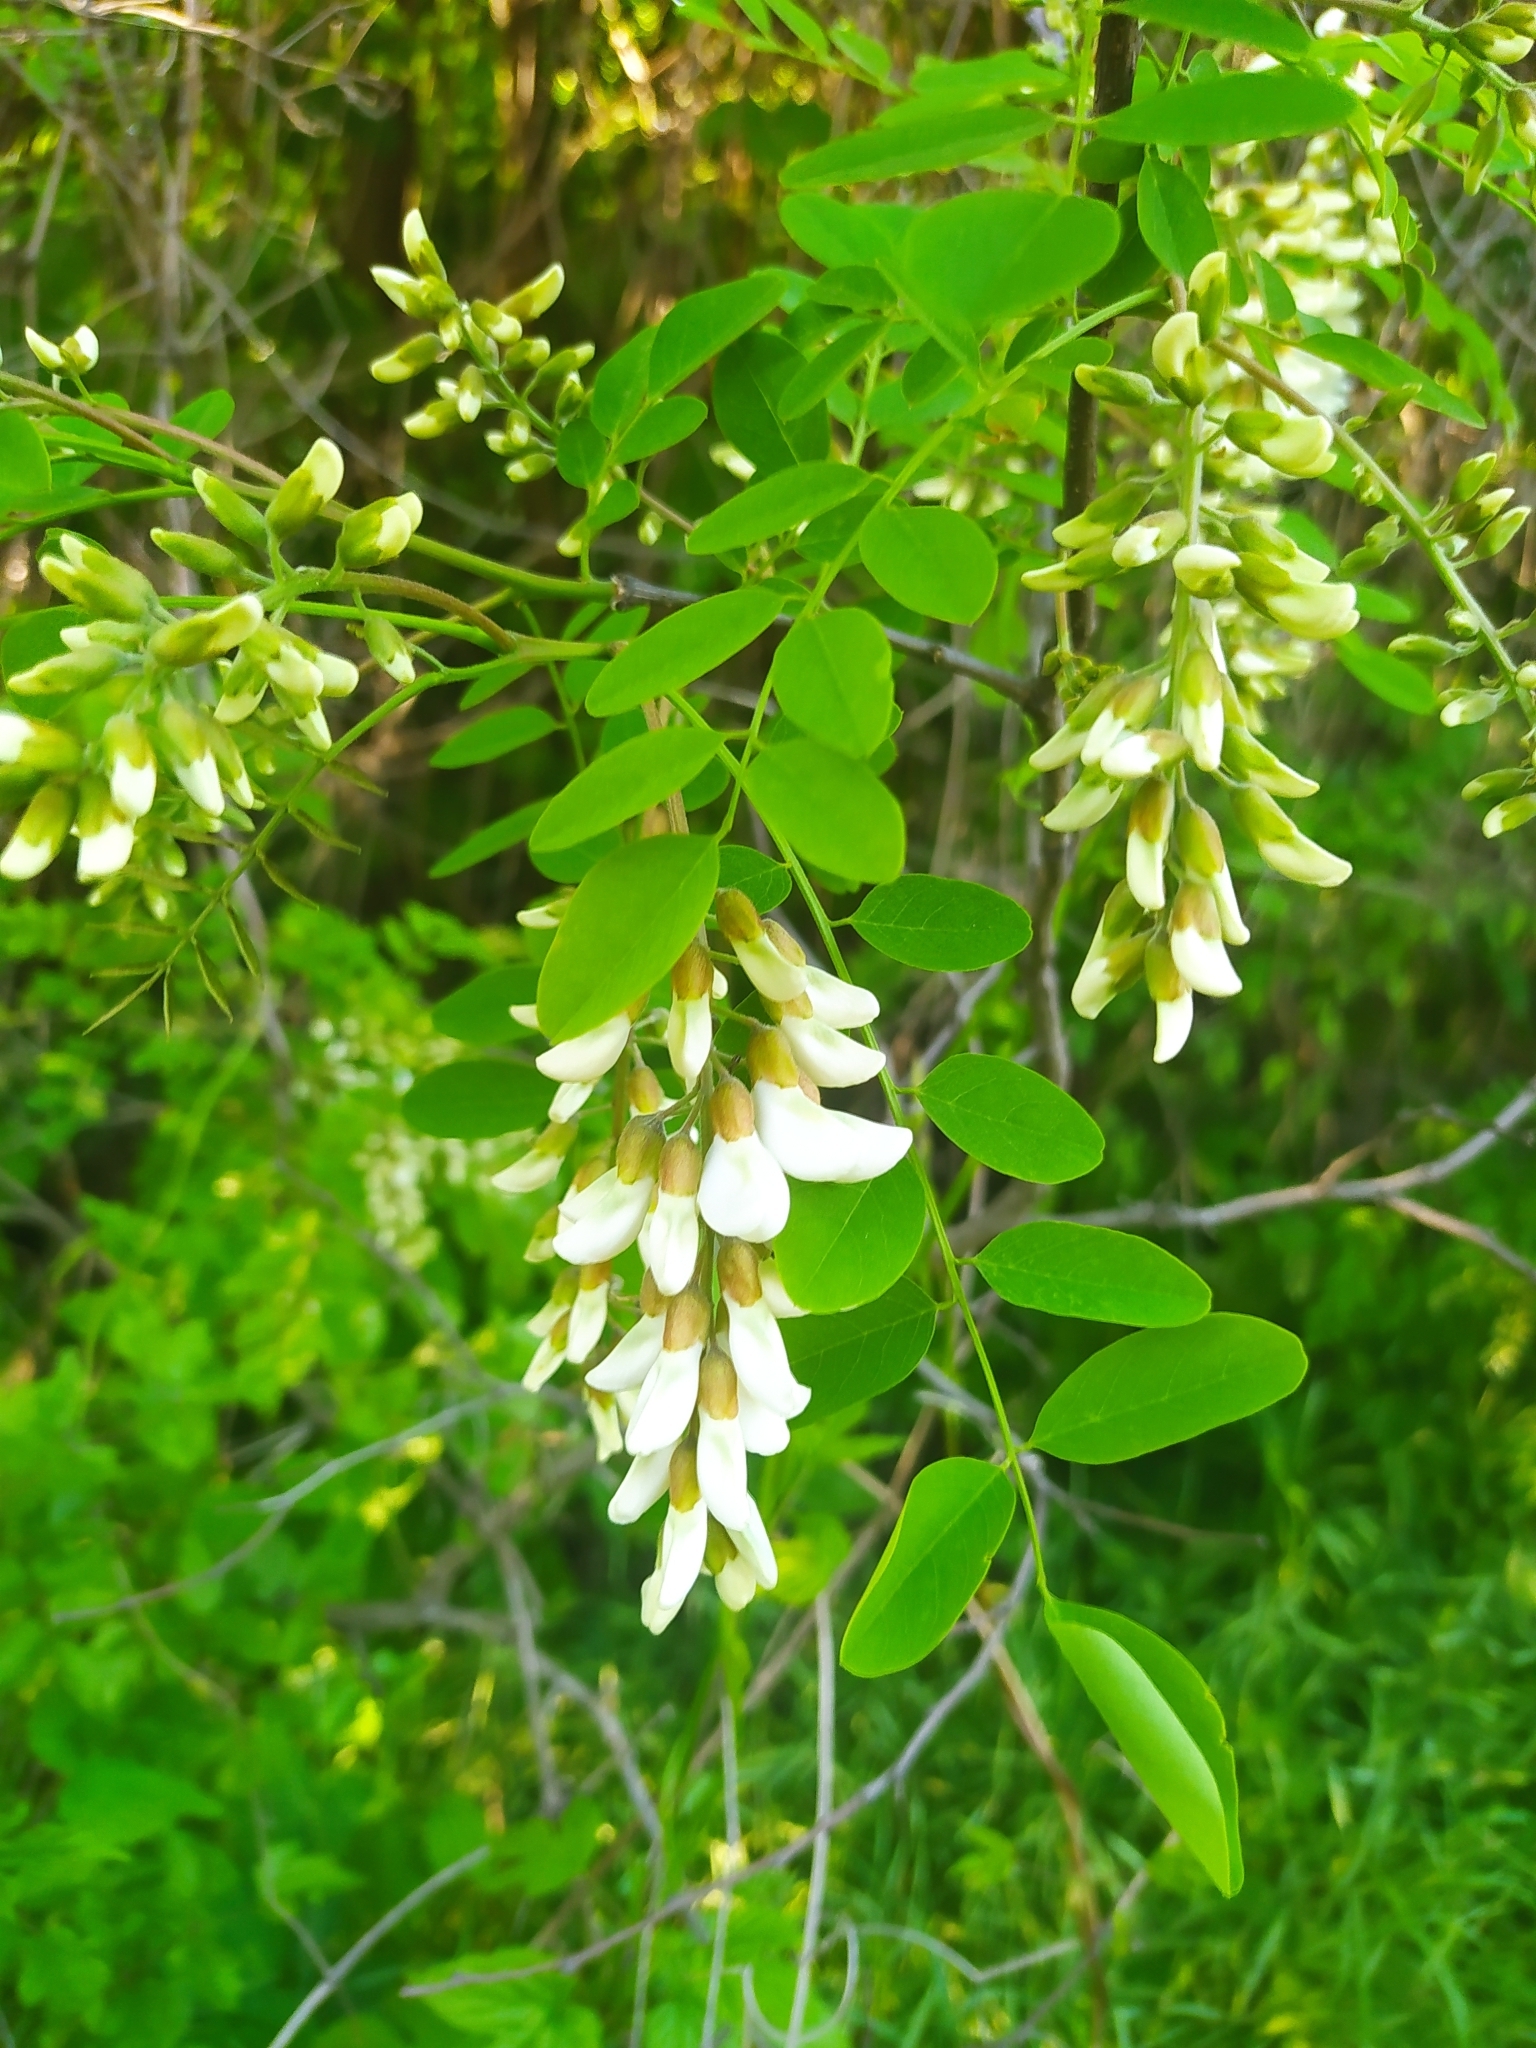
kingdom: Plantae
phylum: Tracheophyta
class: Magnoliopsida
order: Fabales
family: Fabaceae
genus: Robinia
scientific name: Robinia pseudoacacia
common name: Black locust
